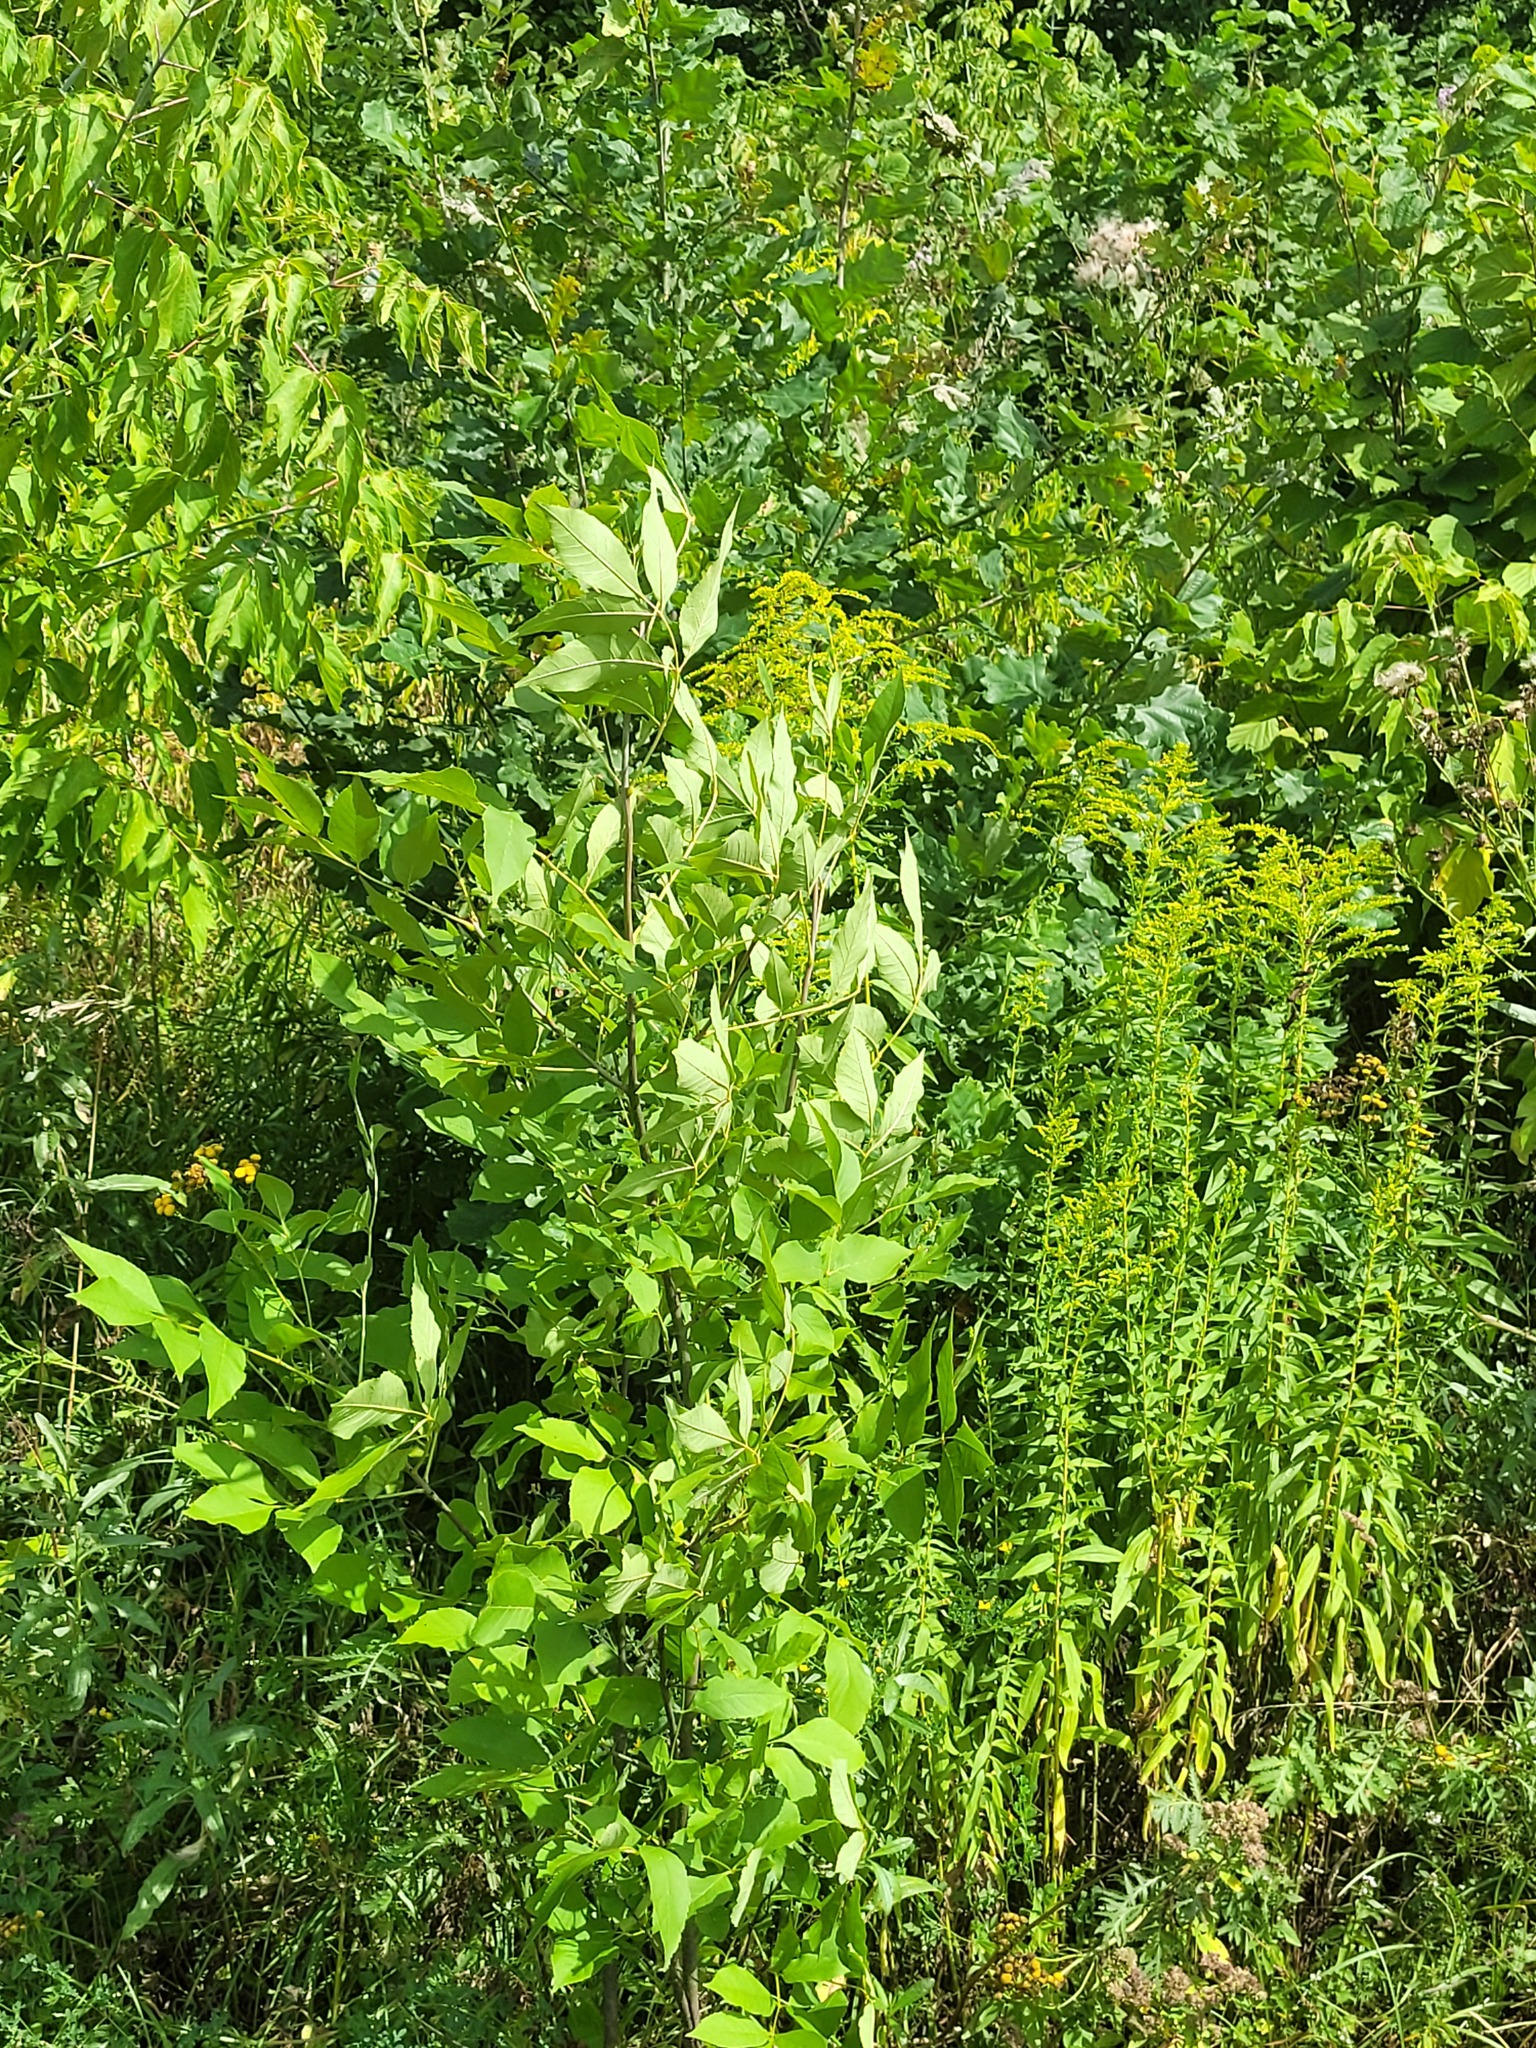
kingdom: Plantae
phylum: Tracheophyta
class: Magnoliopsida
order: Lamiales
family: Oleaceae
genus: Fraxinus
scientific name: Fraxinus pennsylvanica
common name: Green ash
